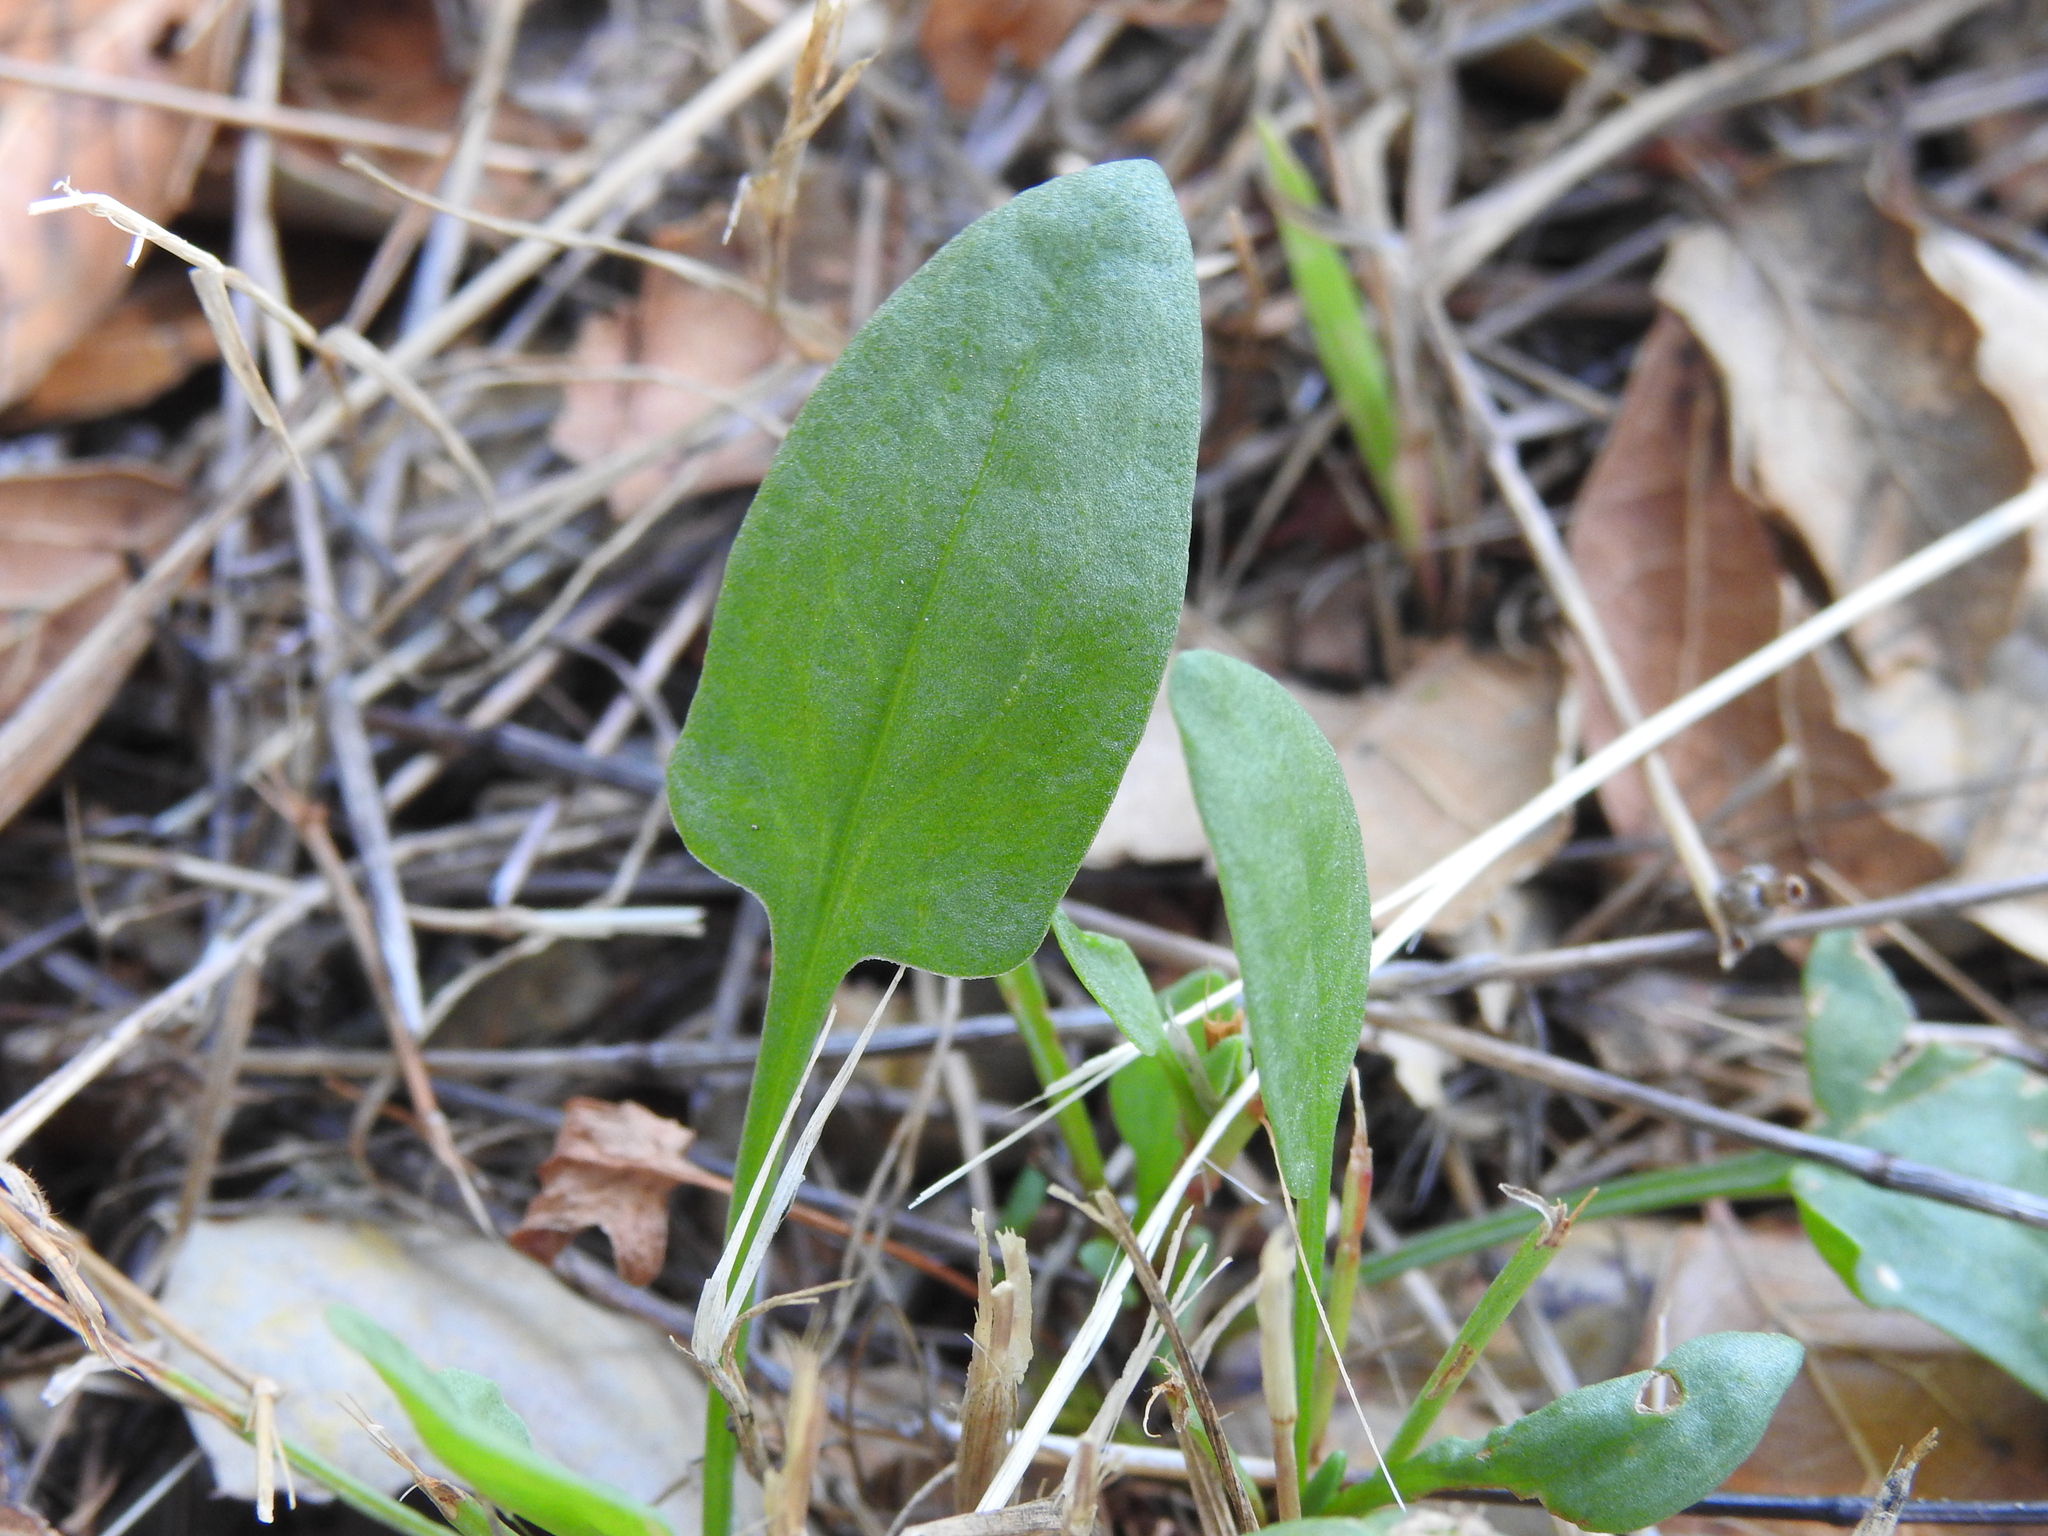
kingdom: Plantae
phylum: Tracheophyta
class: Magnoliopsida
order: Caryophyllales
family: Polygonaceae
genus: Rumex
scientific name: Rumex acetosella
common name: Common sheep sorrel
